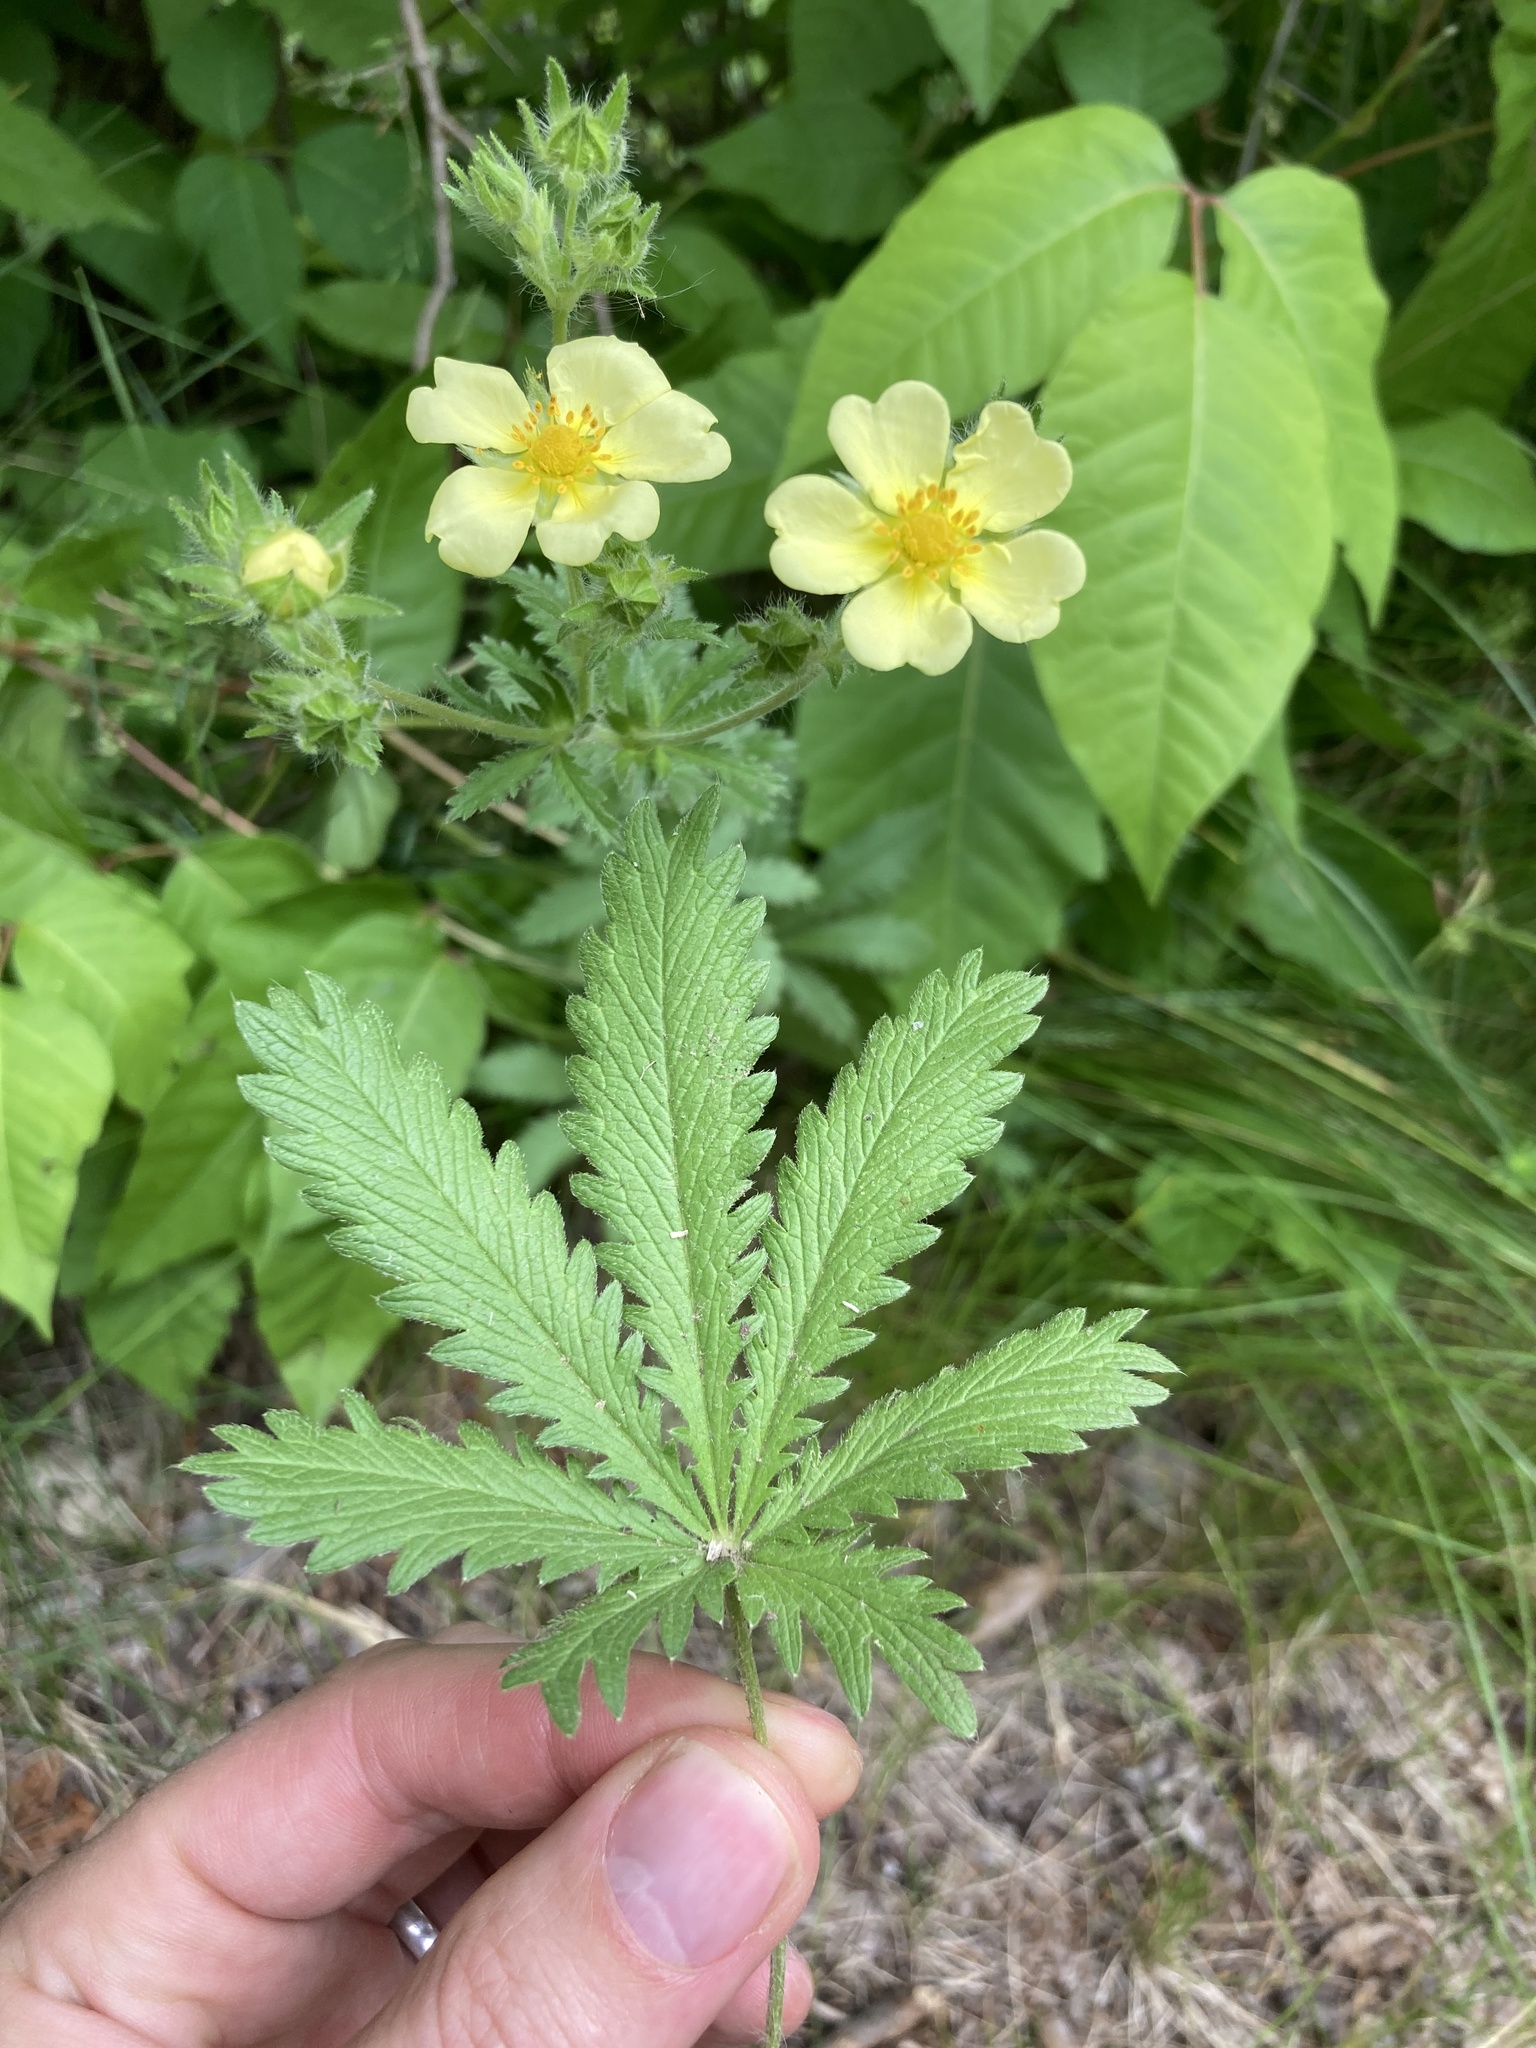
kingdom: Plantae
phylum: Tracheophyta
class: Magnoliopsida
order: Rosales
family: Rosaceae
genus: Potentilla
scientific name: Potentilla recta
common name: Sulphur cinquefoil
